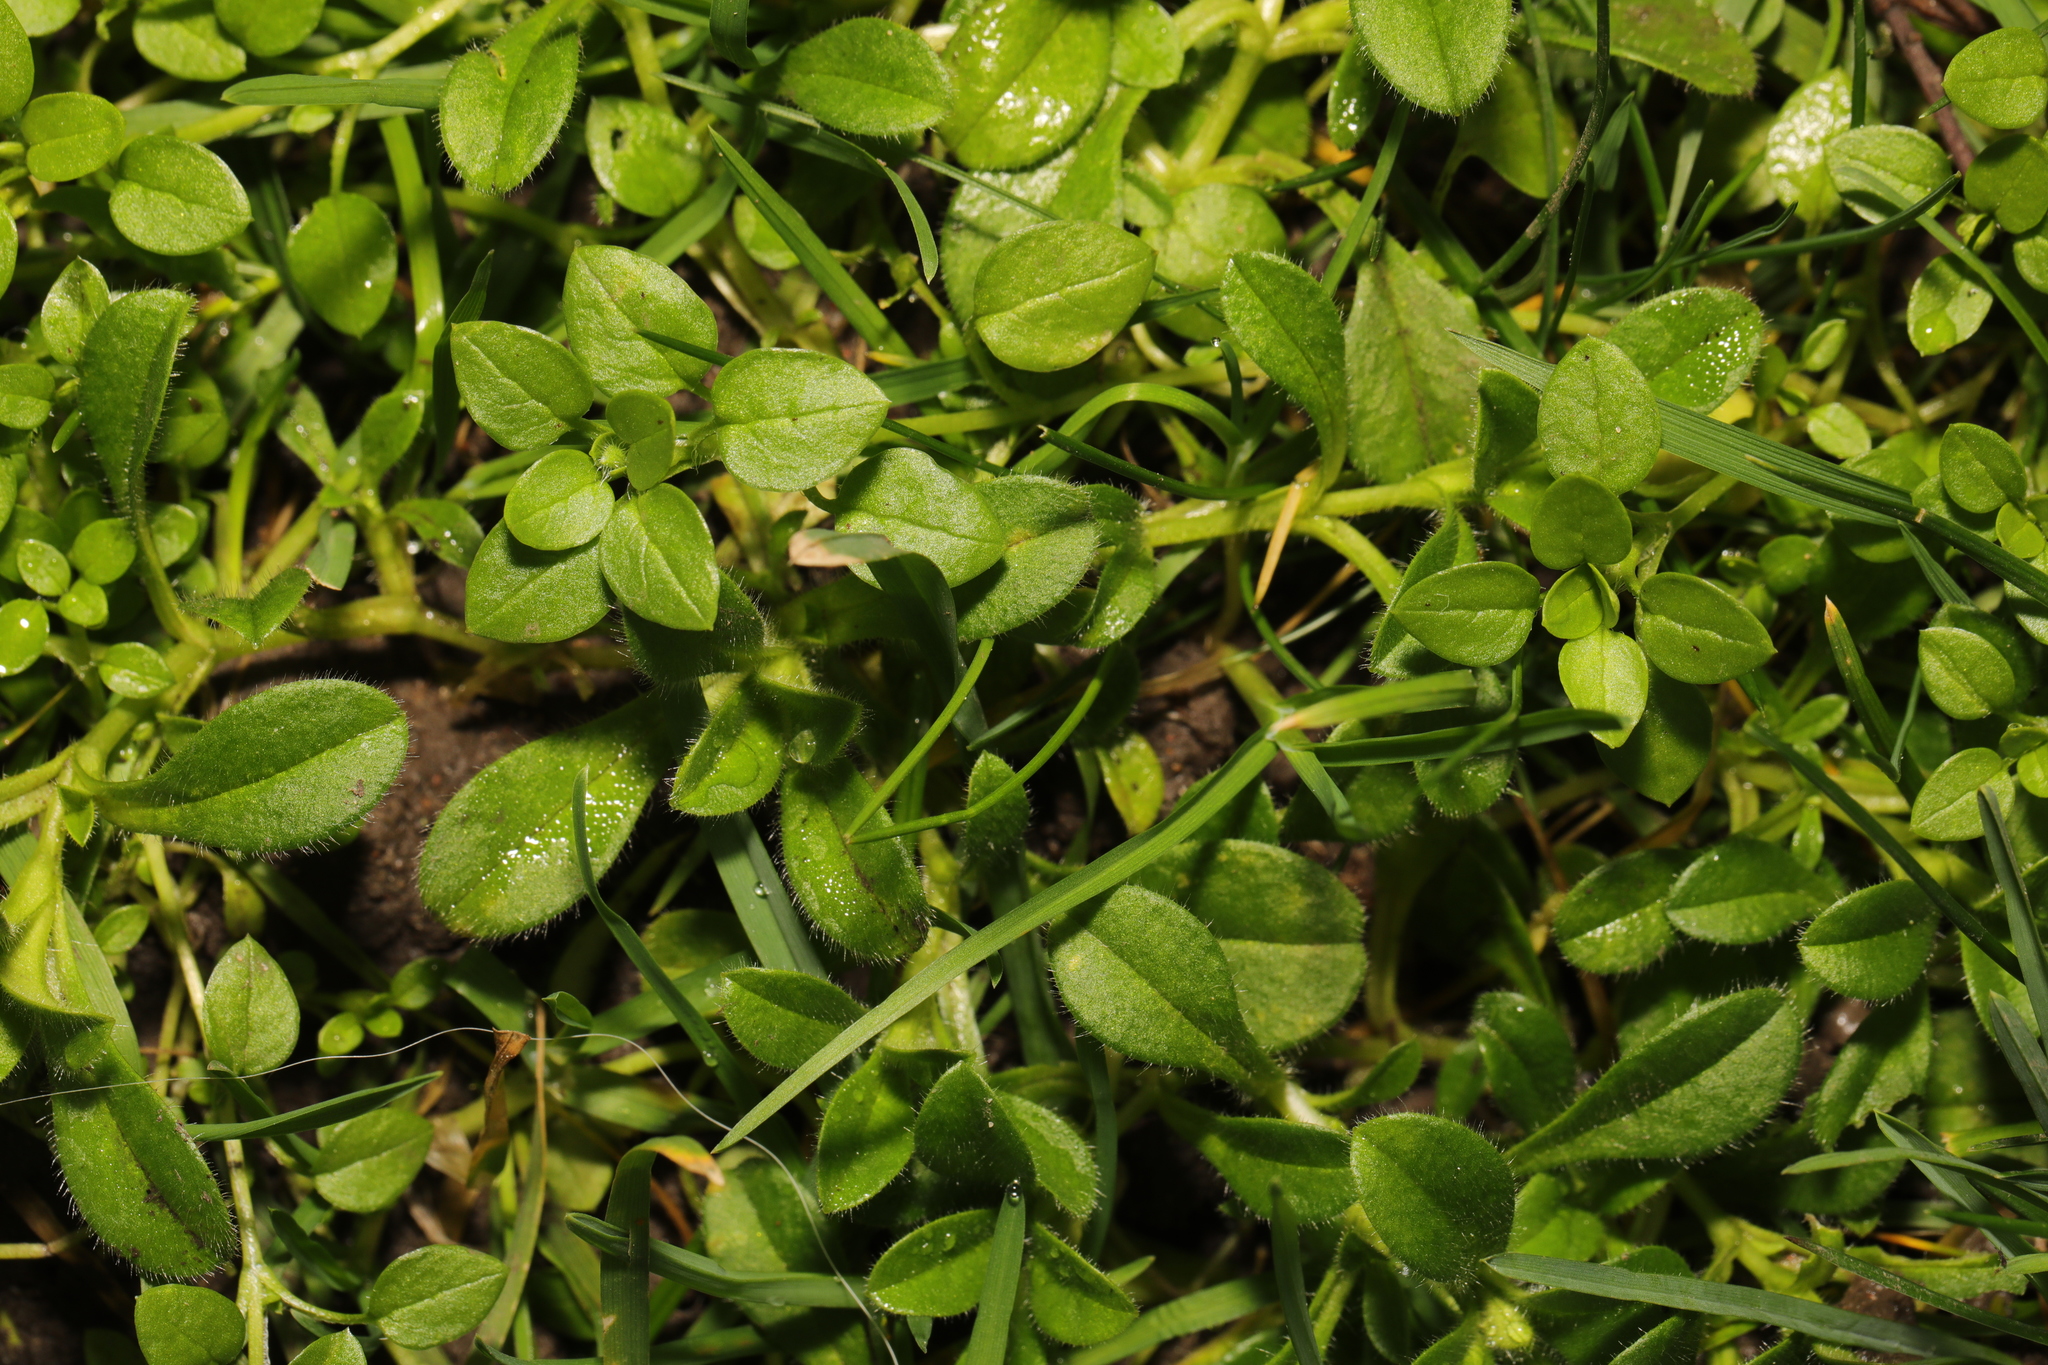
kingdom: Plantae
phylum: Tracheophyta
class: Magnoliopsida
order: Caryophyllales
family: Caryophyllaceae
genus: Cerastium
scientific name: Cerastium fontanum
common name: Common mouse-ear
